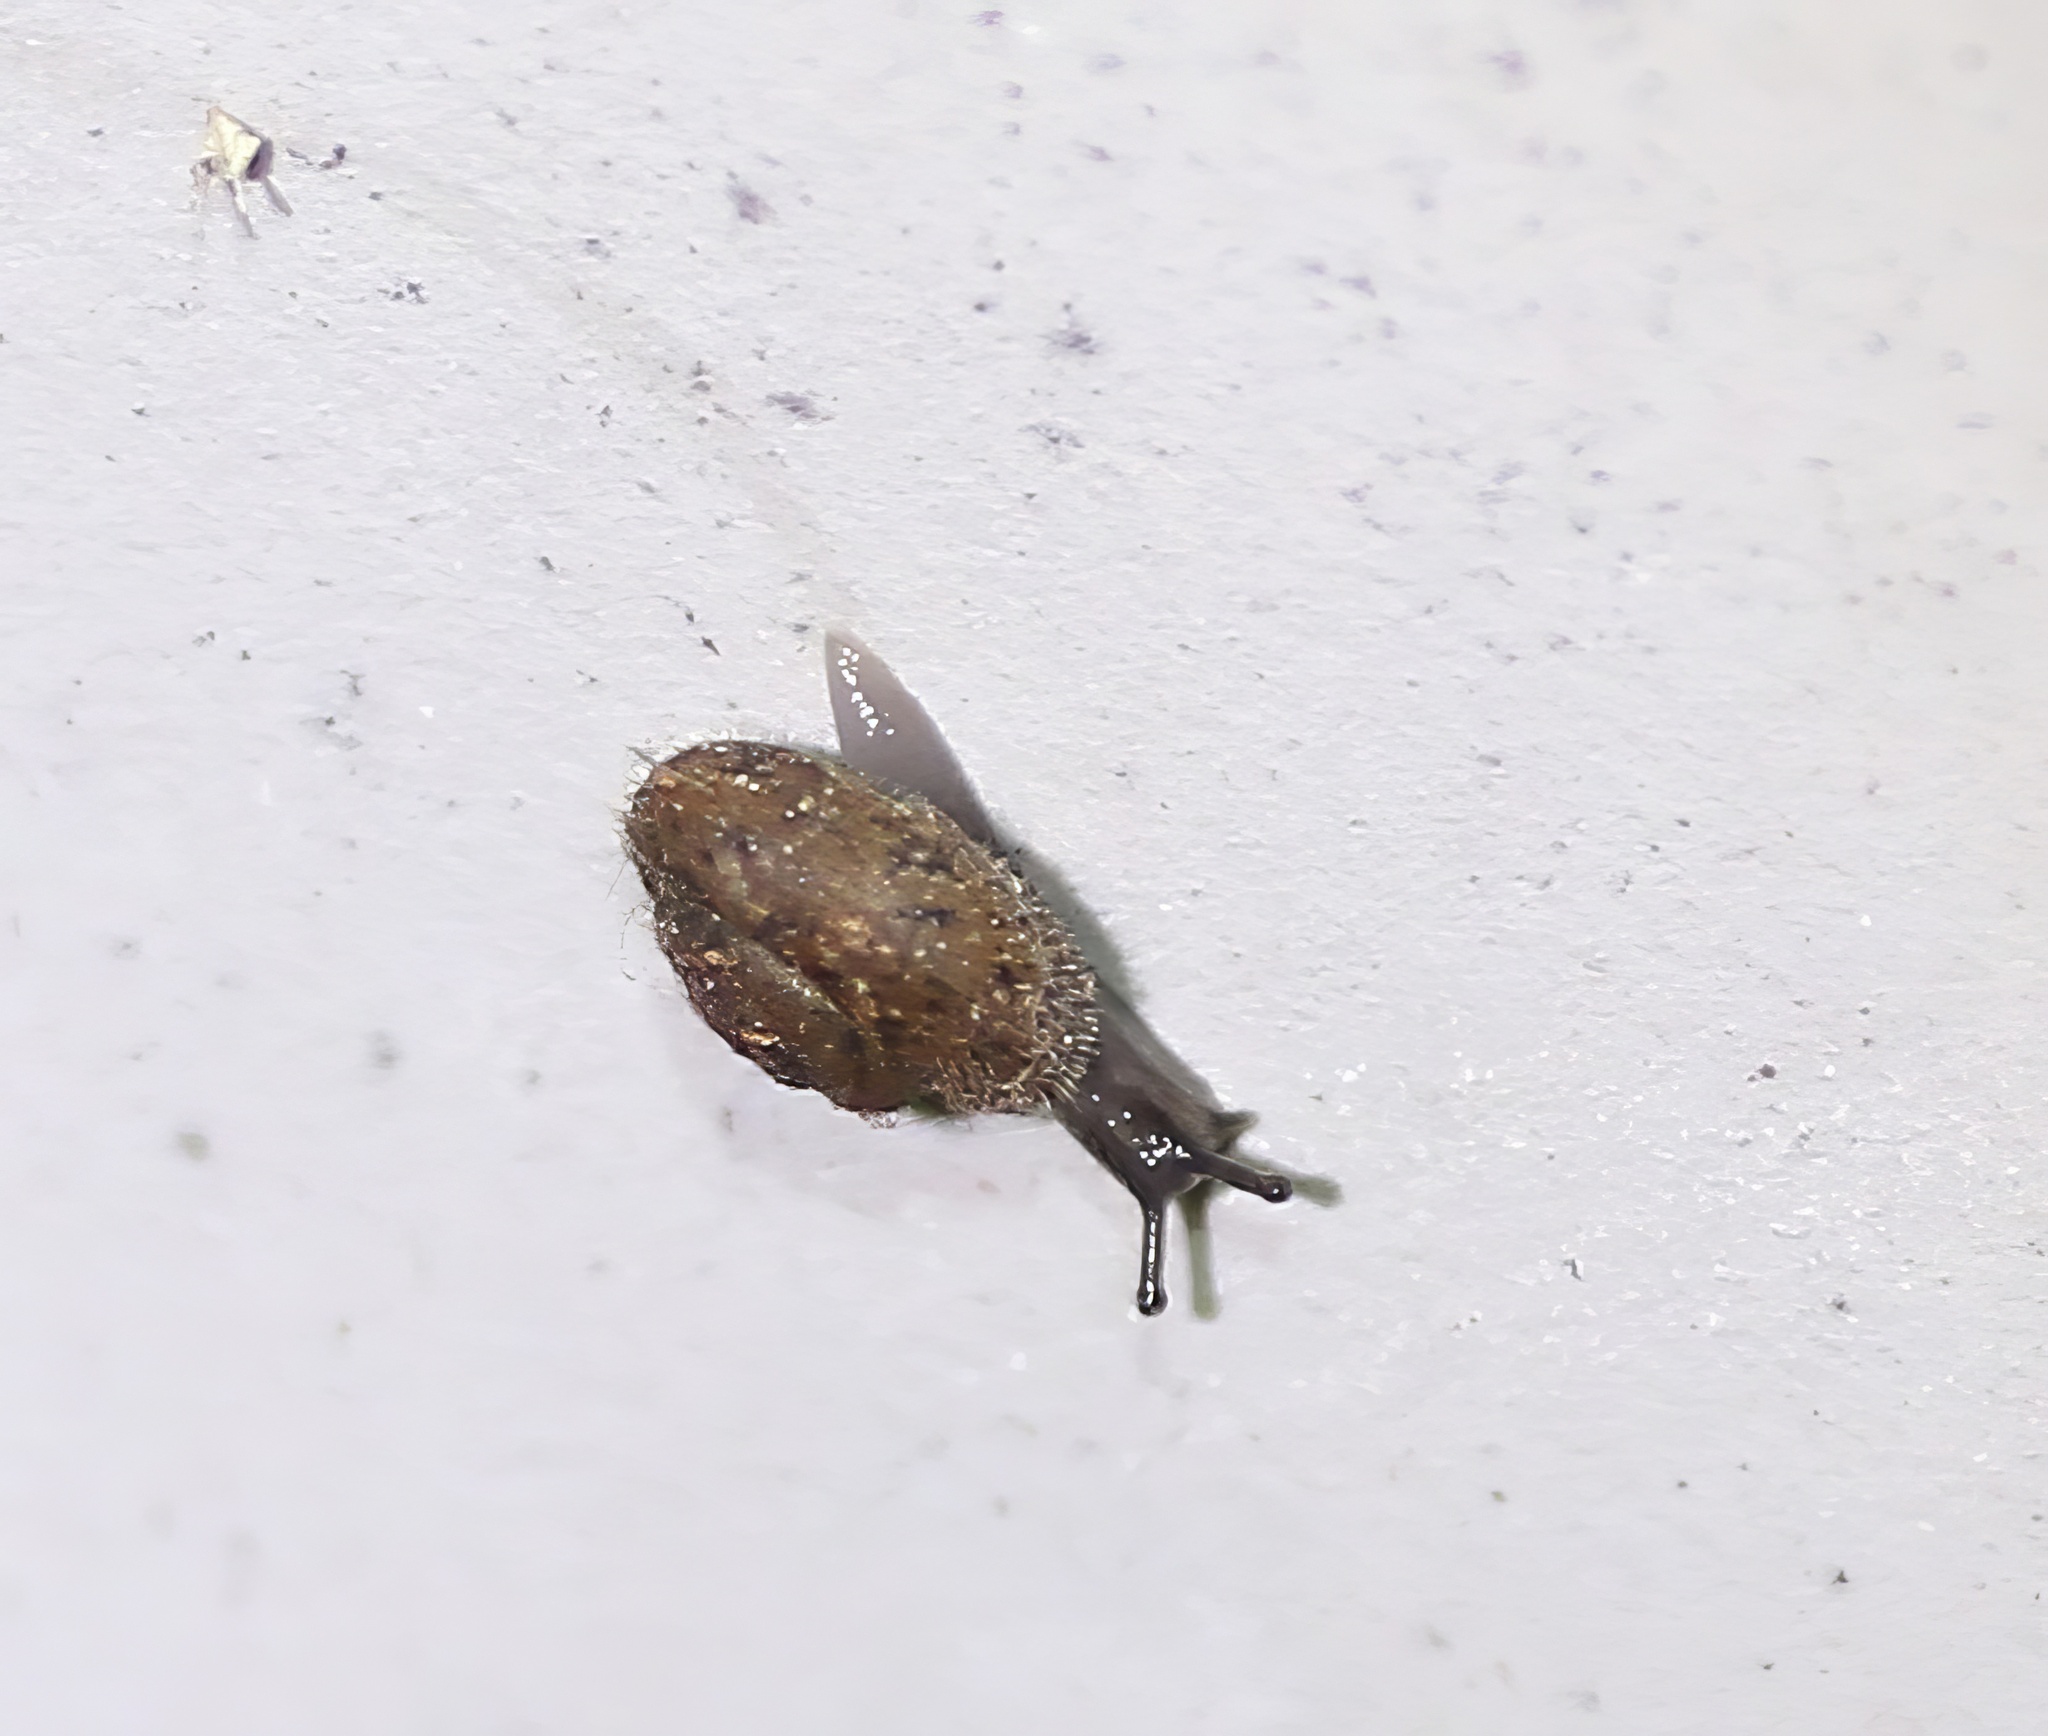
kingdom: Animalia
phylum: Mollusca
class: Gastropoda
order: Stylommatophora
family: Geomitridae
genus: Xerotricha
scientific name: Xerotricha conspurcata
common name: Snail
